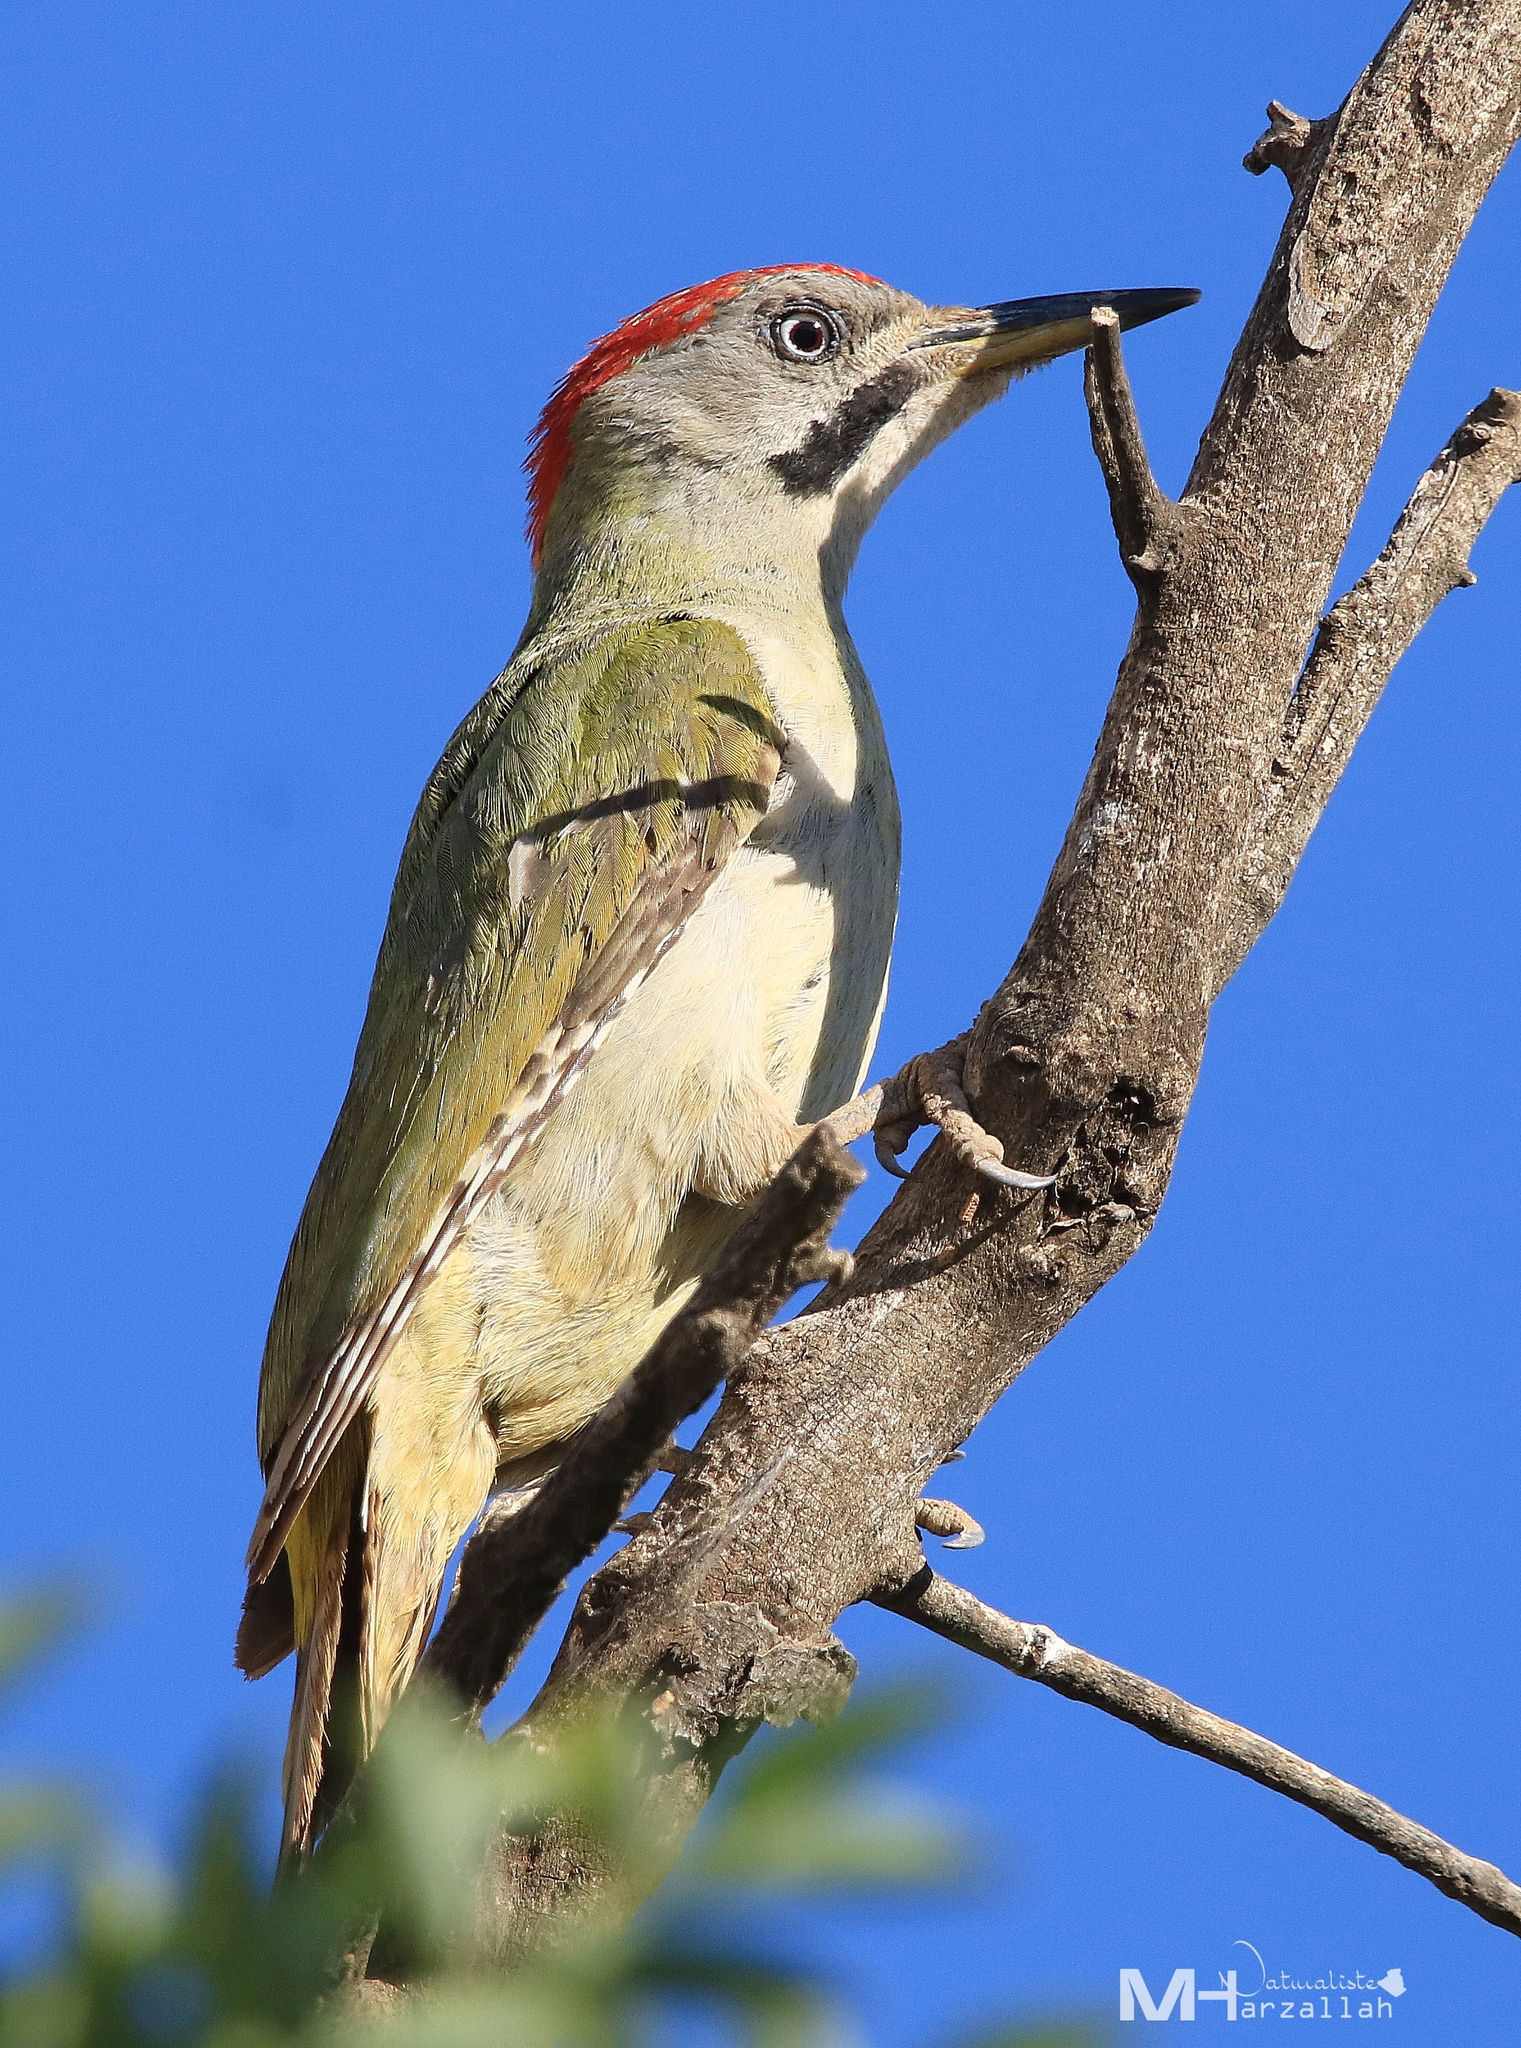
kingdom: Animalia
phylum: Chordata
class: Aves
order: Piciformes
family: Picidae
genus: Picus
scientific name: Picus vaillantii
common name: Levaillant's woodpecker
